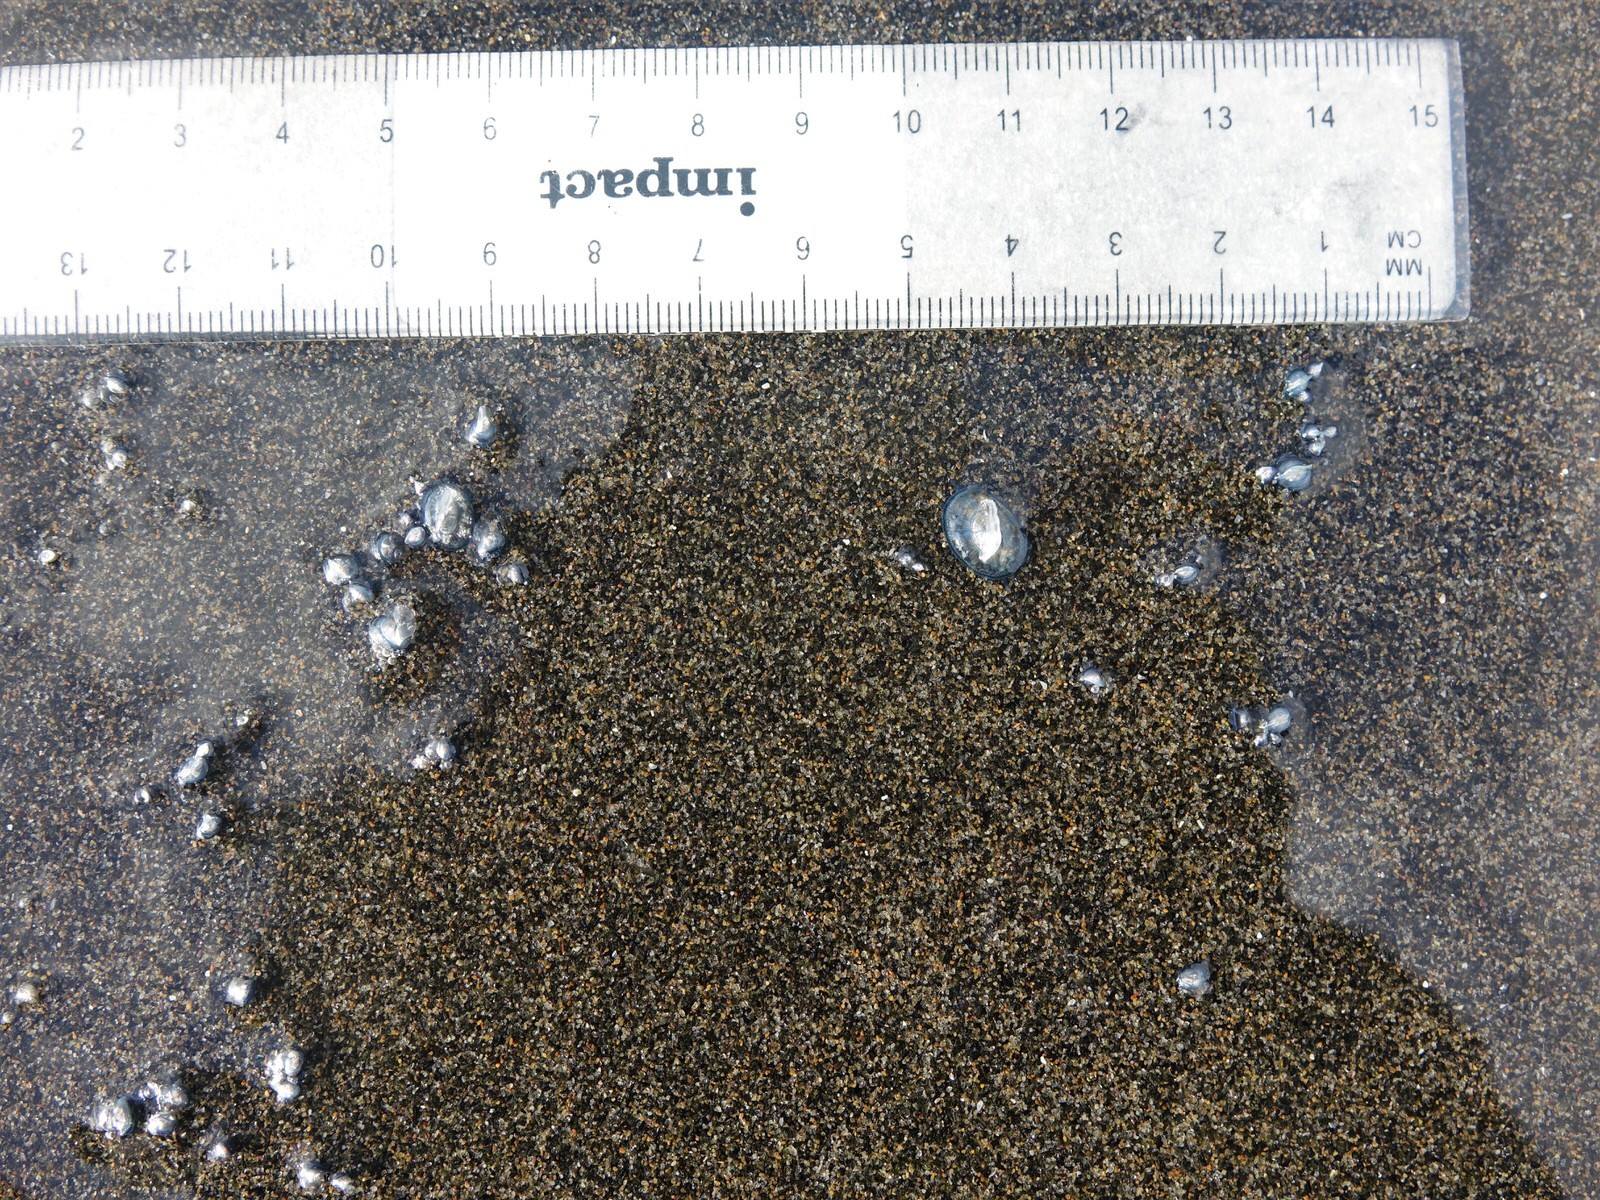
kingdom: Animalia
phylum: Cnidaria
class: Hydrozoa
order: Anthoathecata
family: Porpitidae
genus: Velella
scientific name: Velella velella
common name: By-the-wind-sailor
